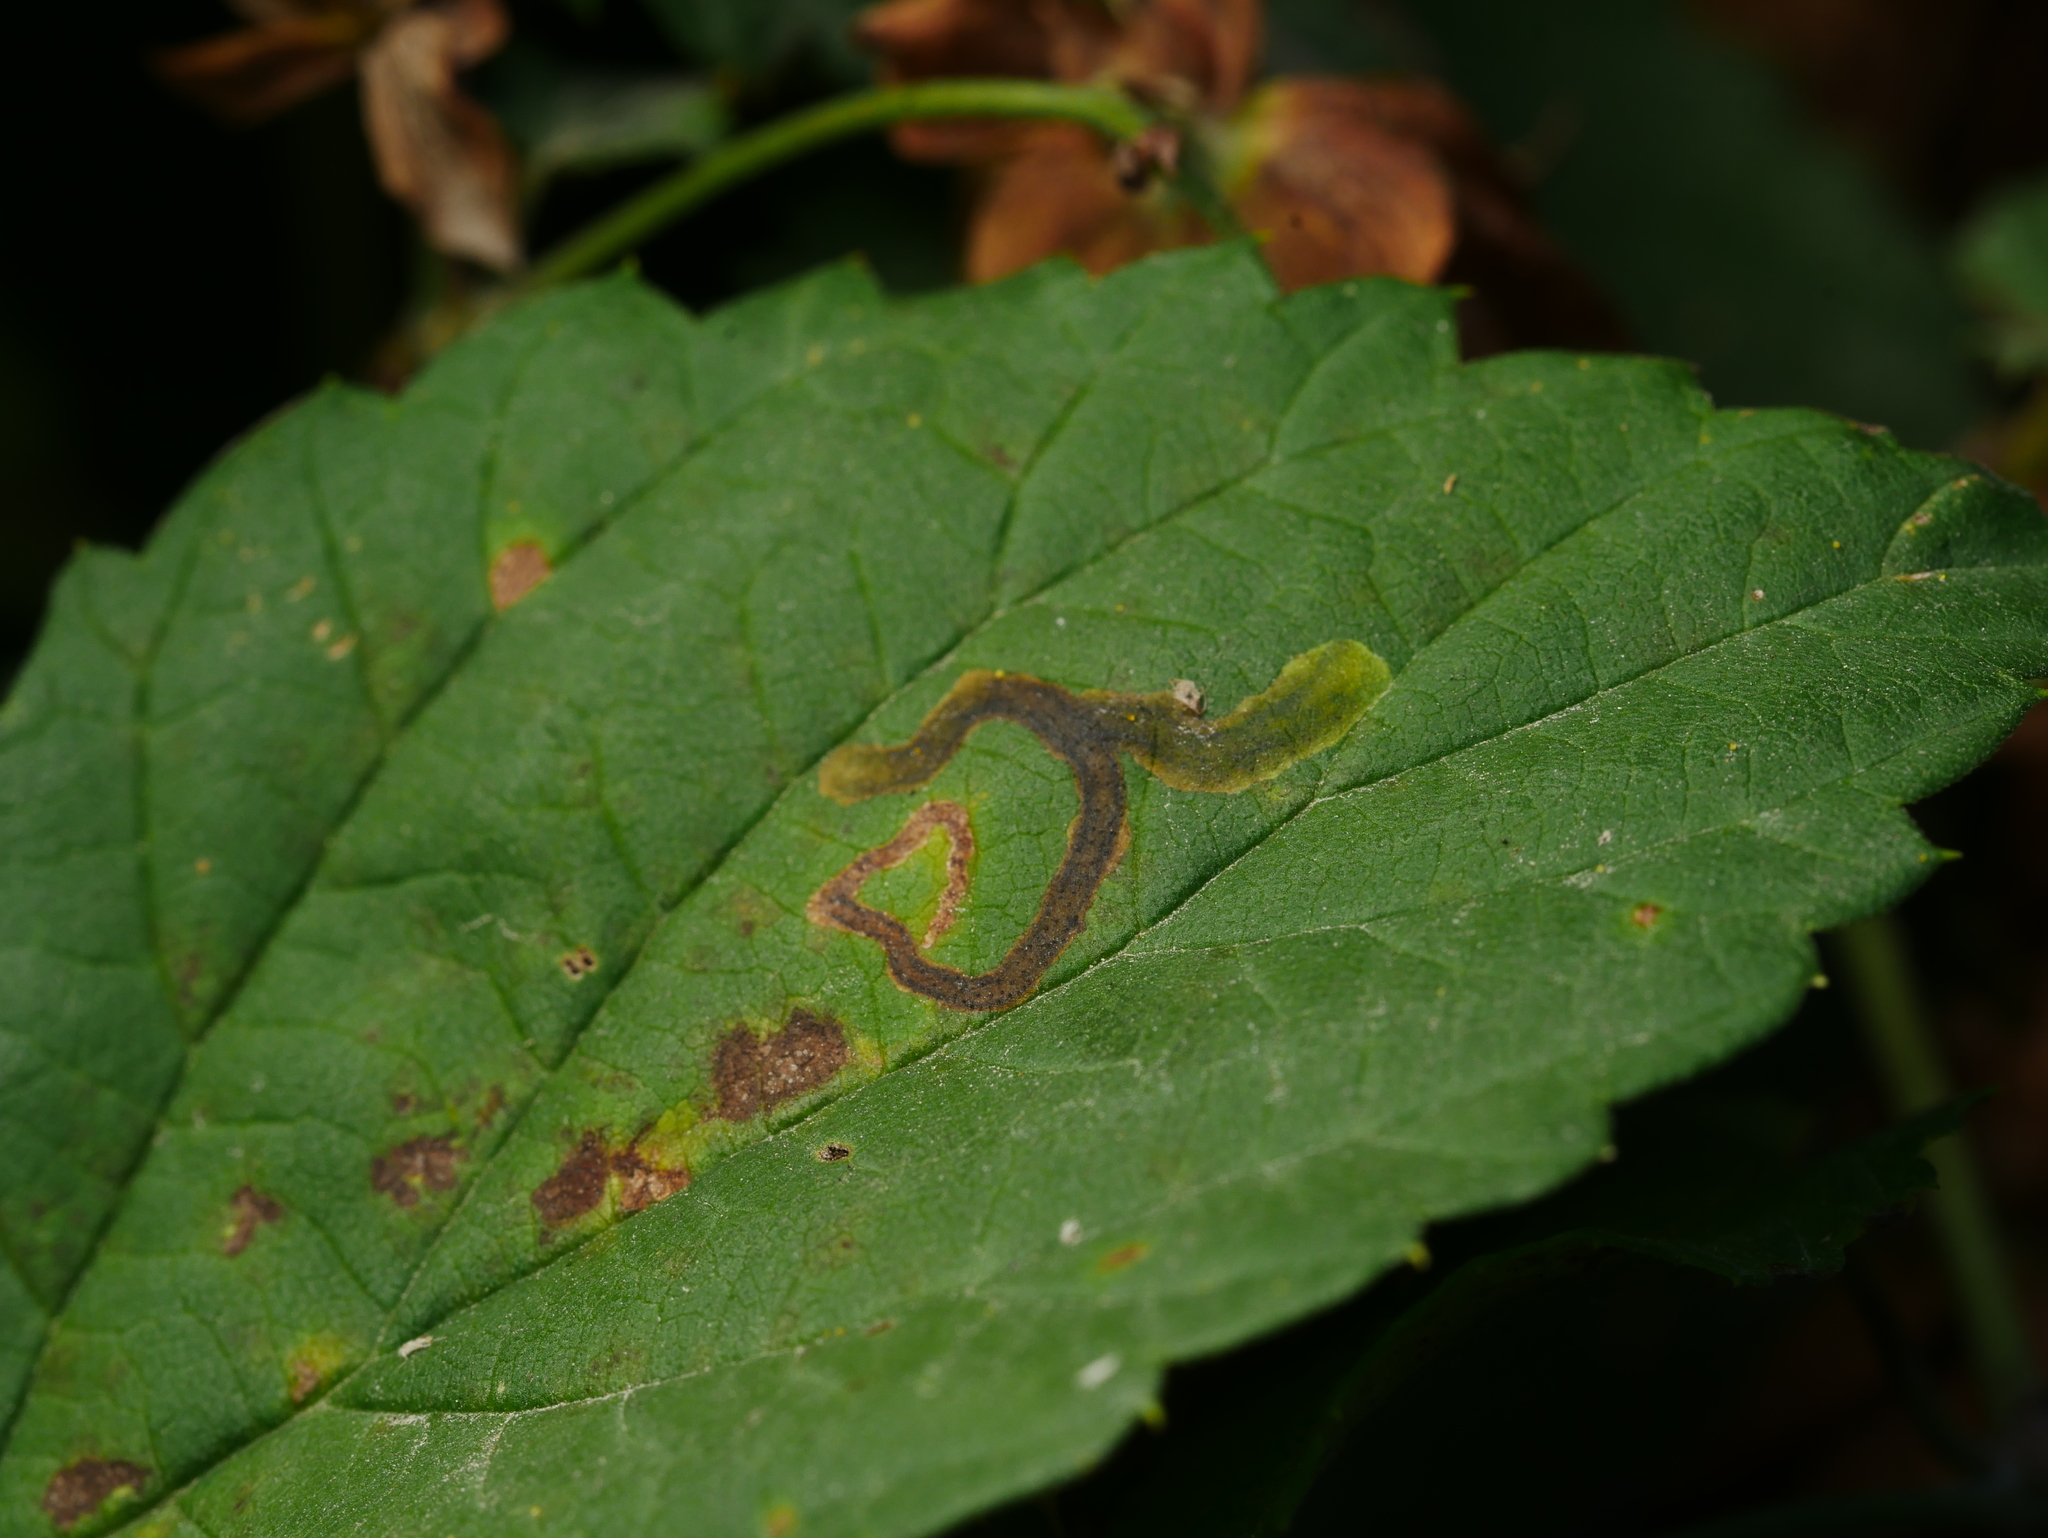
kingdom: Animalia
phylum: Arthropoda
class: Insecta
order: Diptera
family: Agromyzidae
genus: Agromyza
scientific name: Agromyza flaviceps
